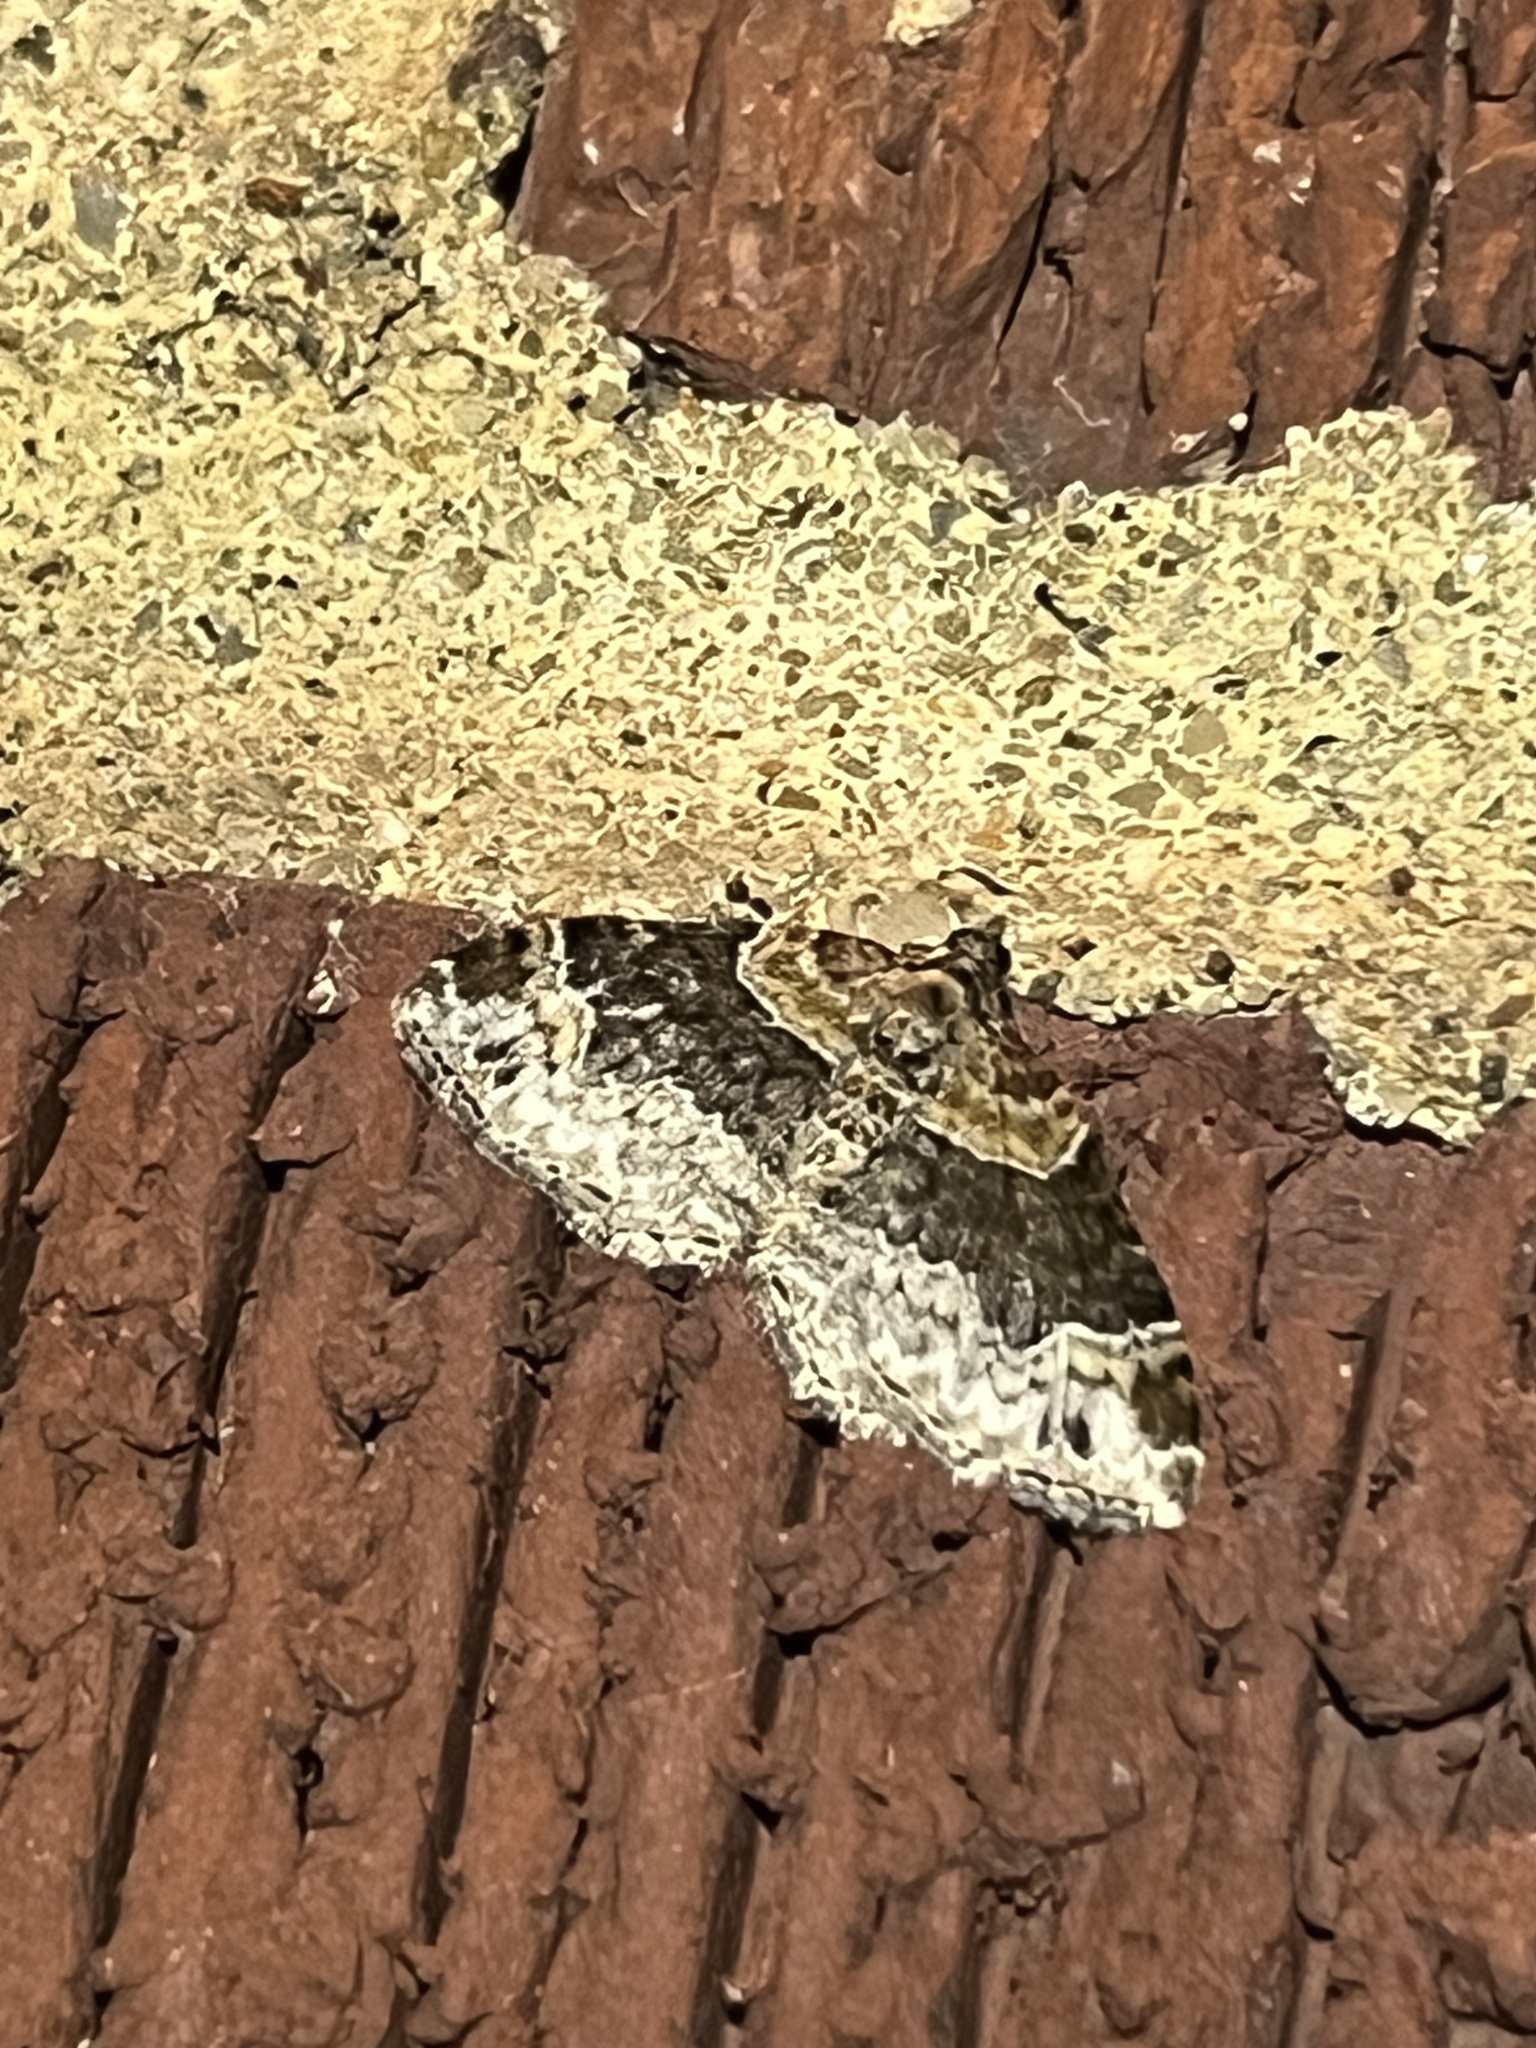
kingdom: Animalia
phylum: Arthropoda
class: Insecta
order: Lepidoptera
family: Geometridae
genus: Xanthorhoe
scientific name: Xanthorhoe ferrugata
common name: Dark-barred twin-spot carpet
